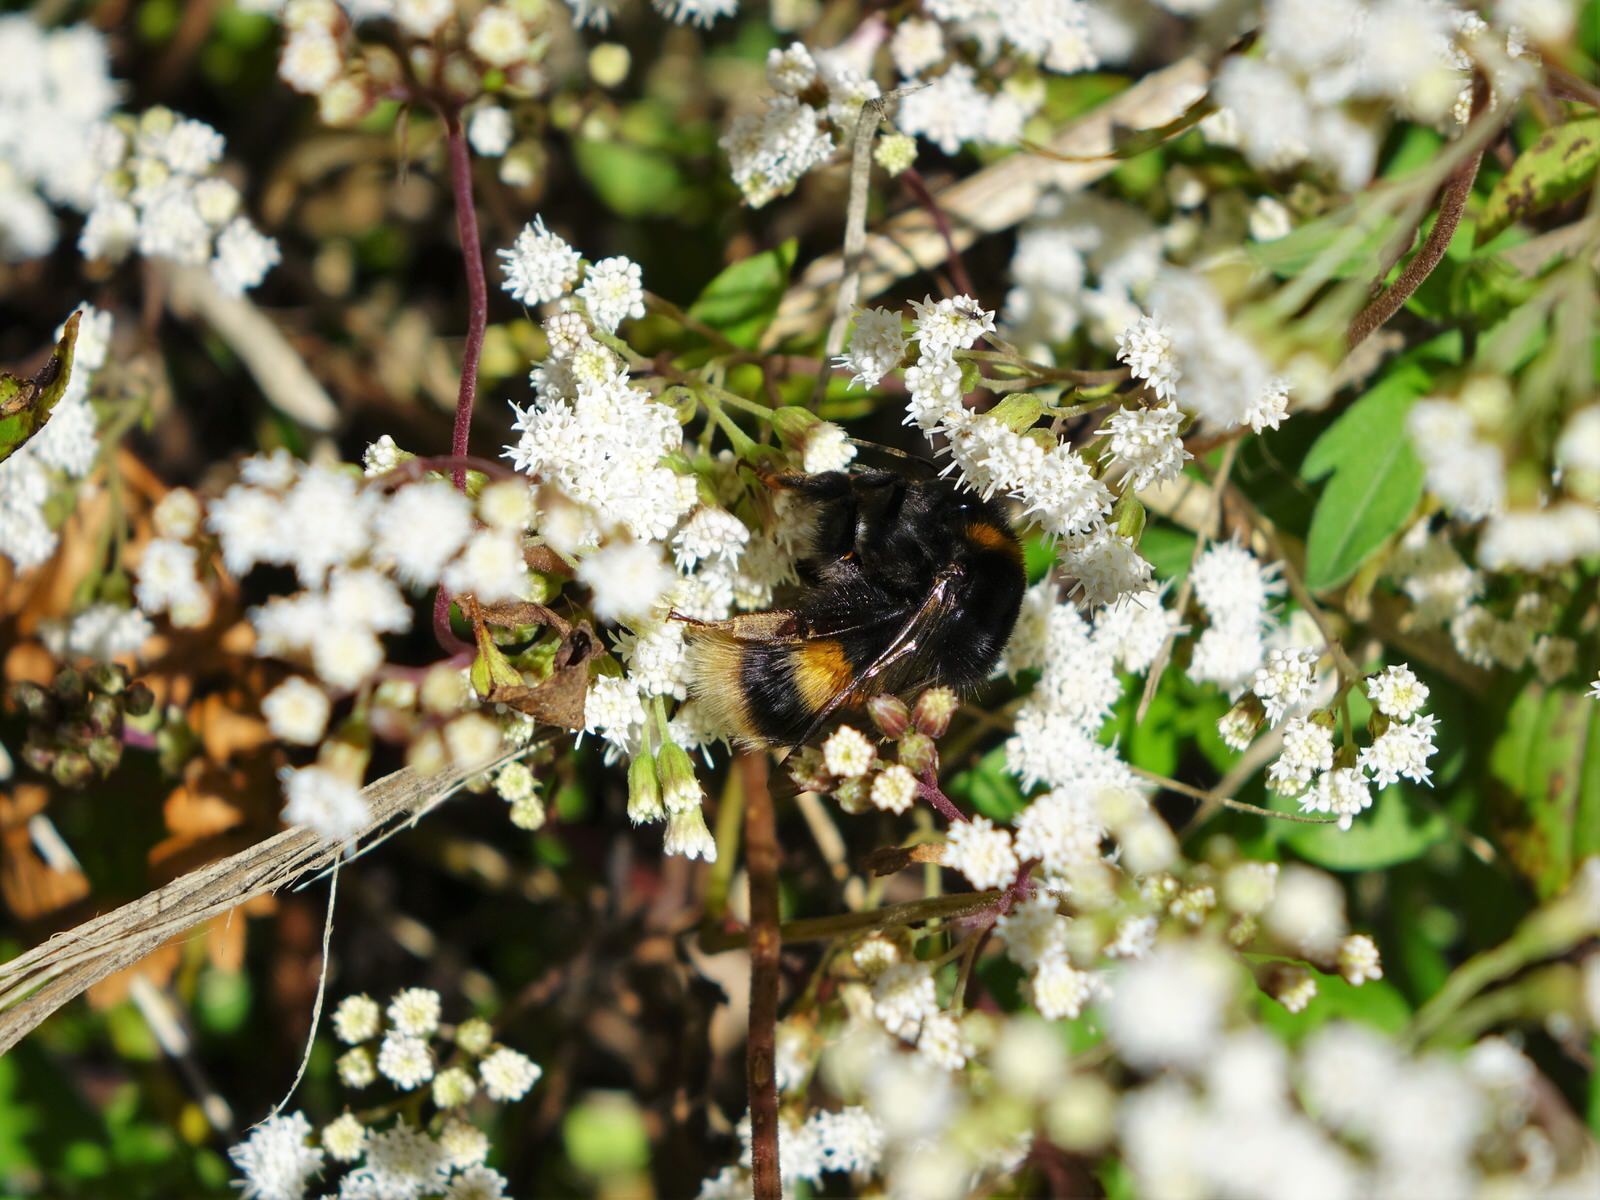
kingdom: Animalia
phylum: Arthropoda
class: Insecta
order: Hymenoptera
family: Apidae
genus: Bombus
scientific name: Bombus terrestris
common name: Buff-tailed bumblebee
